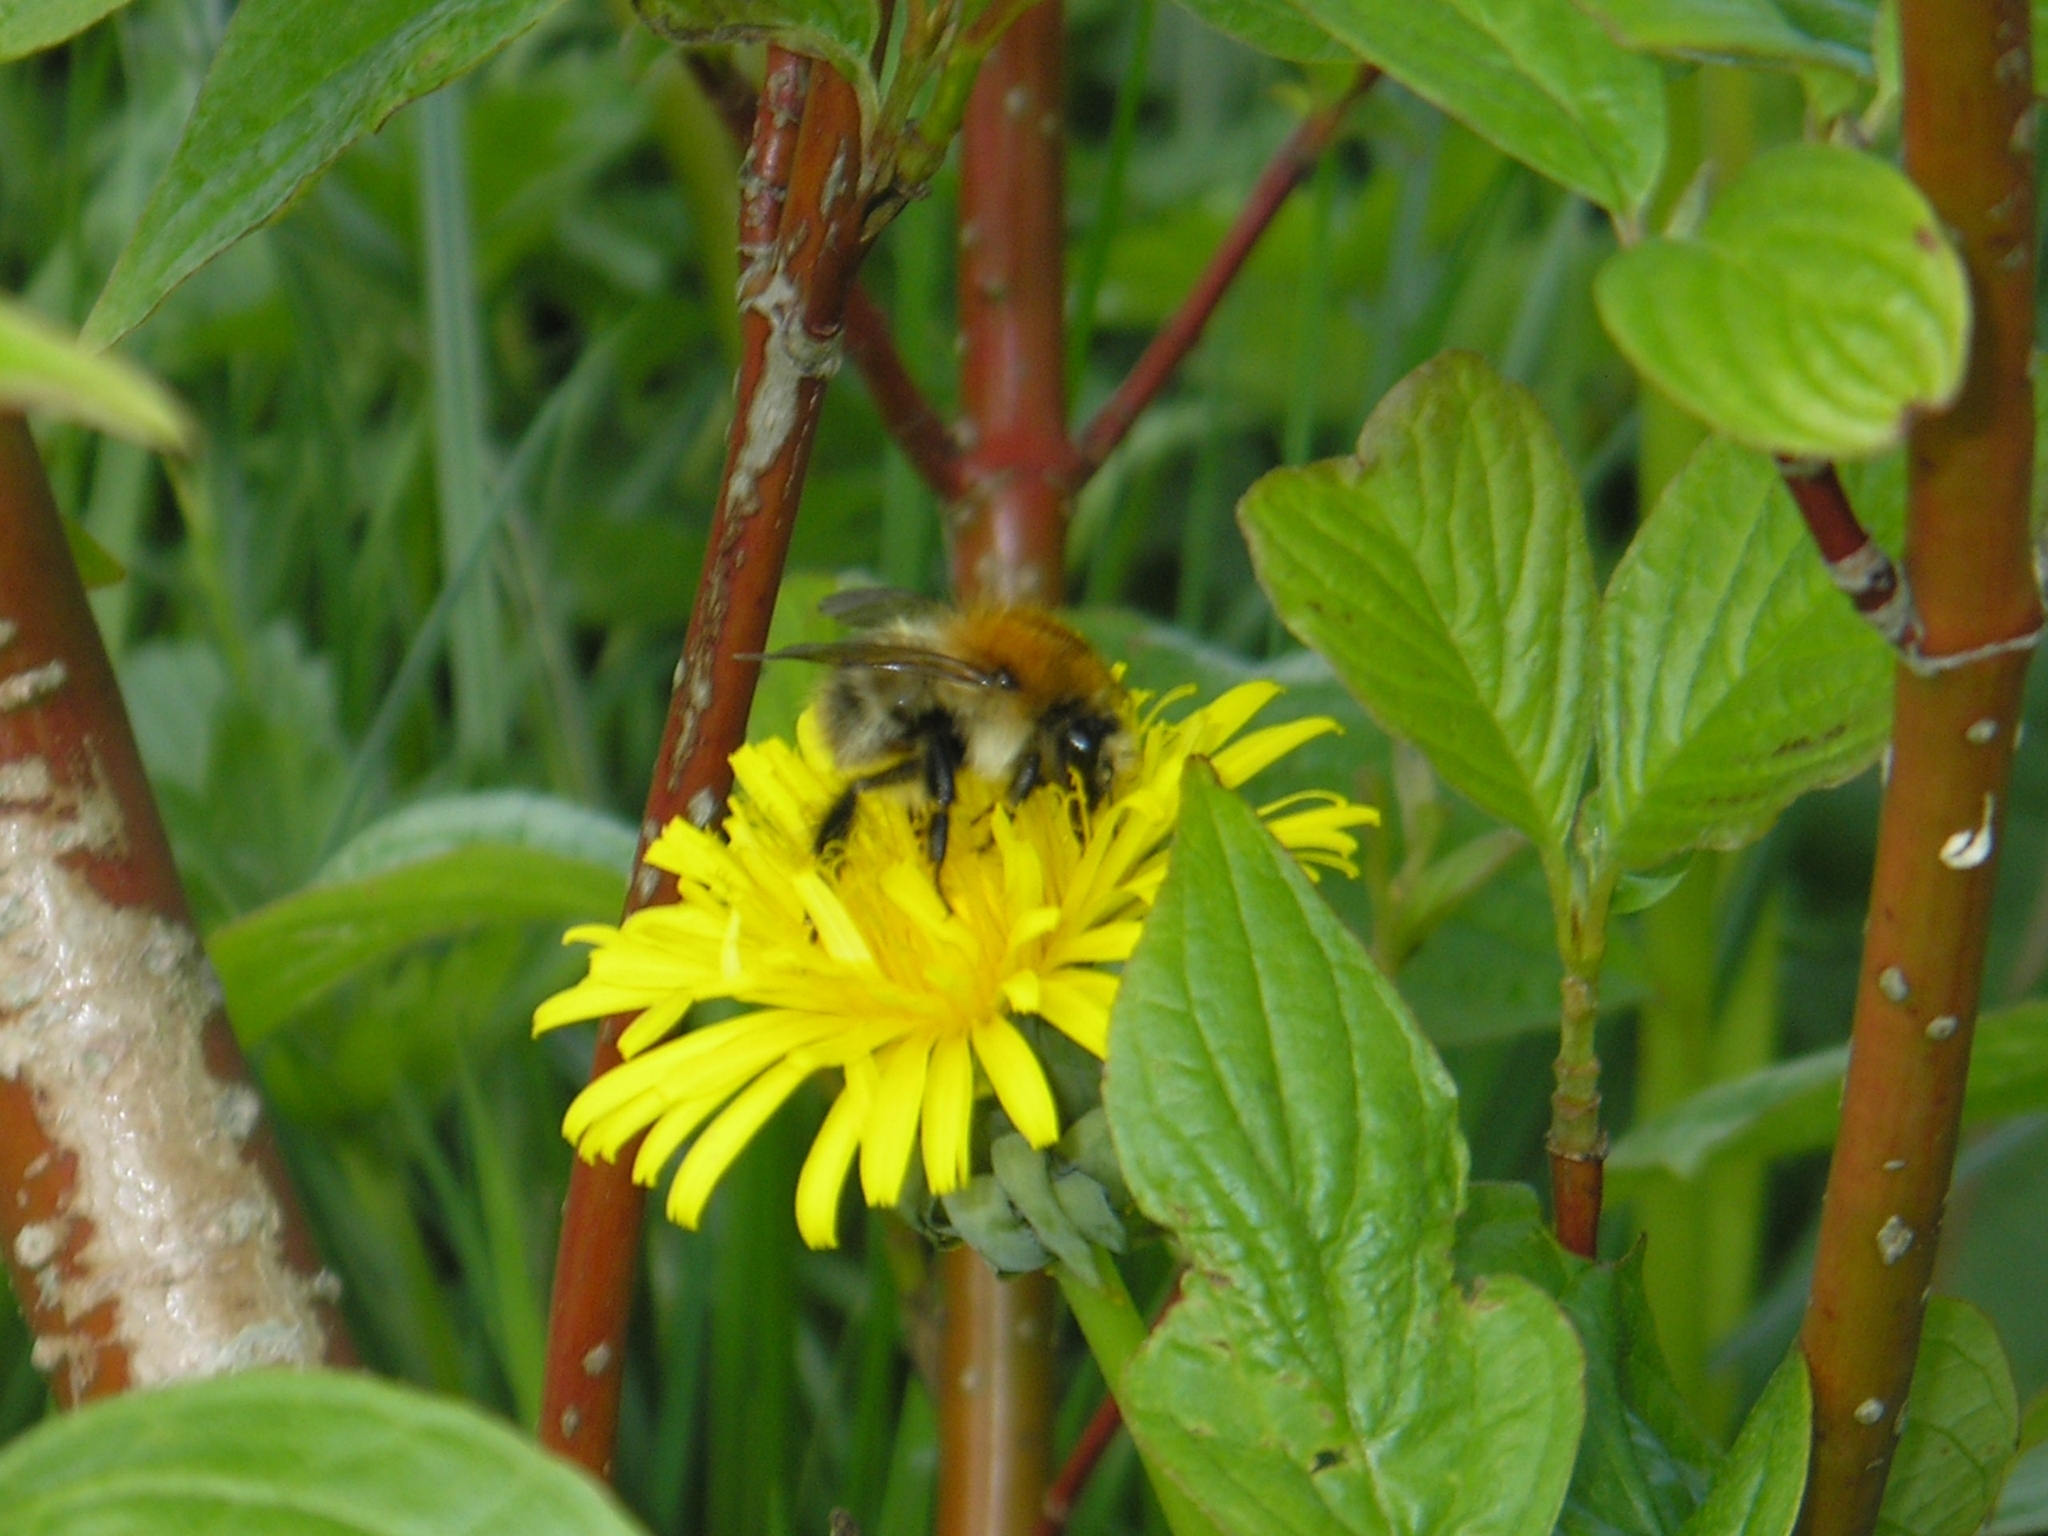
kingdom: Animalia
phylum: Arthropoda
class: Insecta
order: Hymenoptera
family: Apidae
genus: Bombus
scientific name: Bombus pascuorum
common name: Common carder bee
